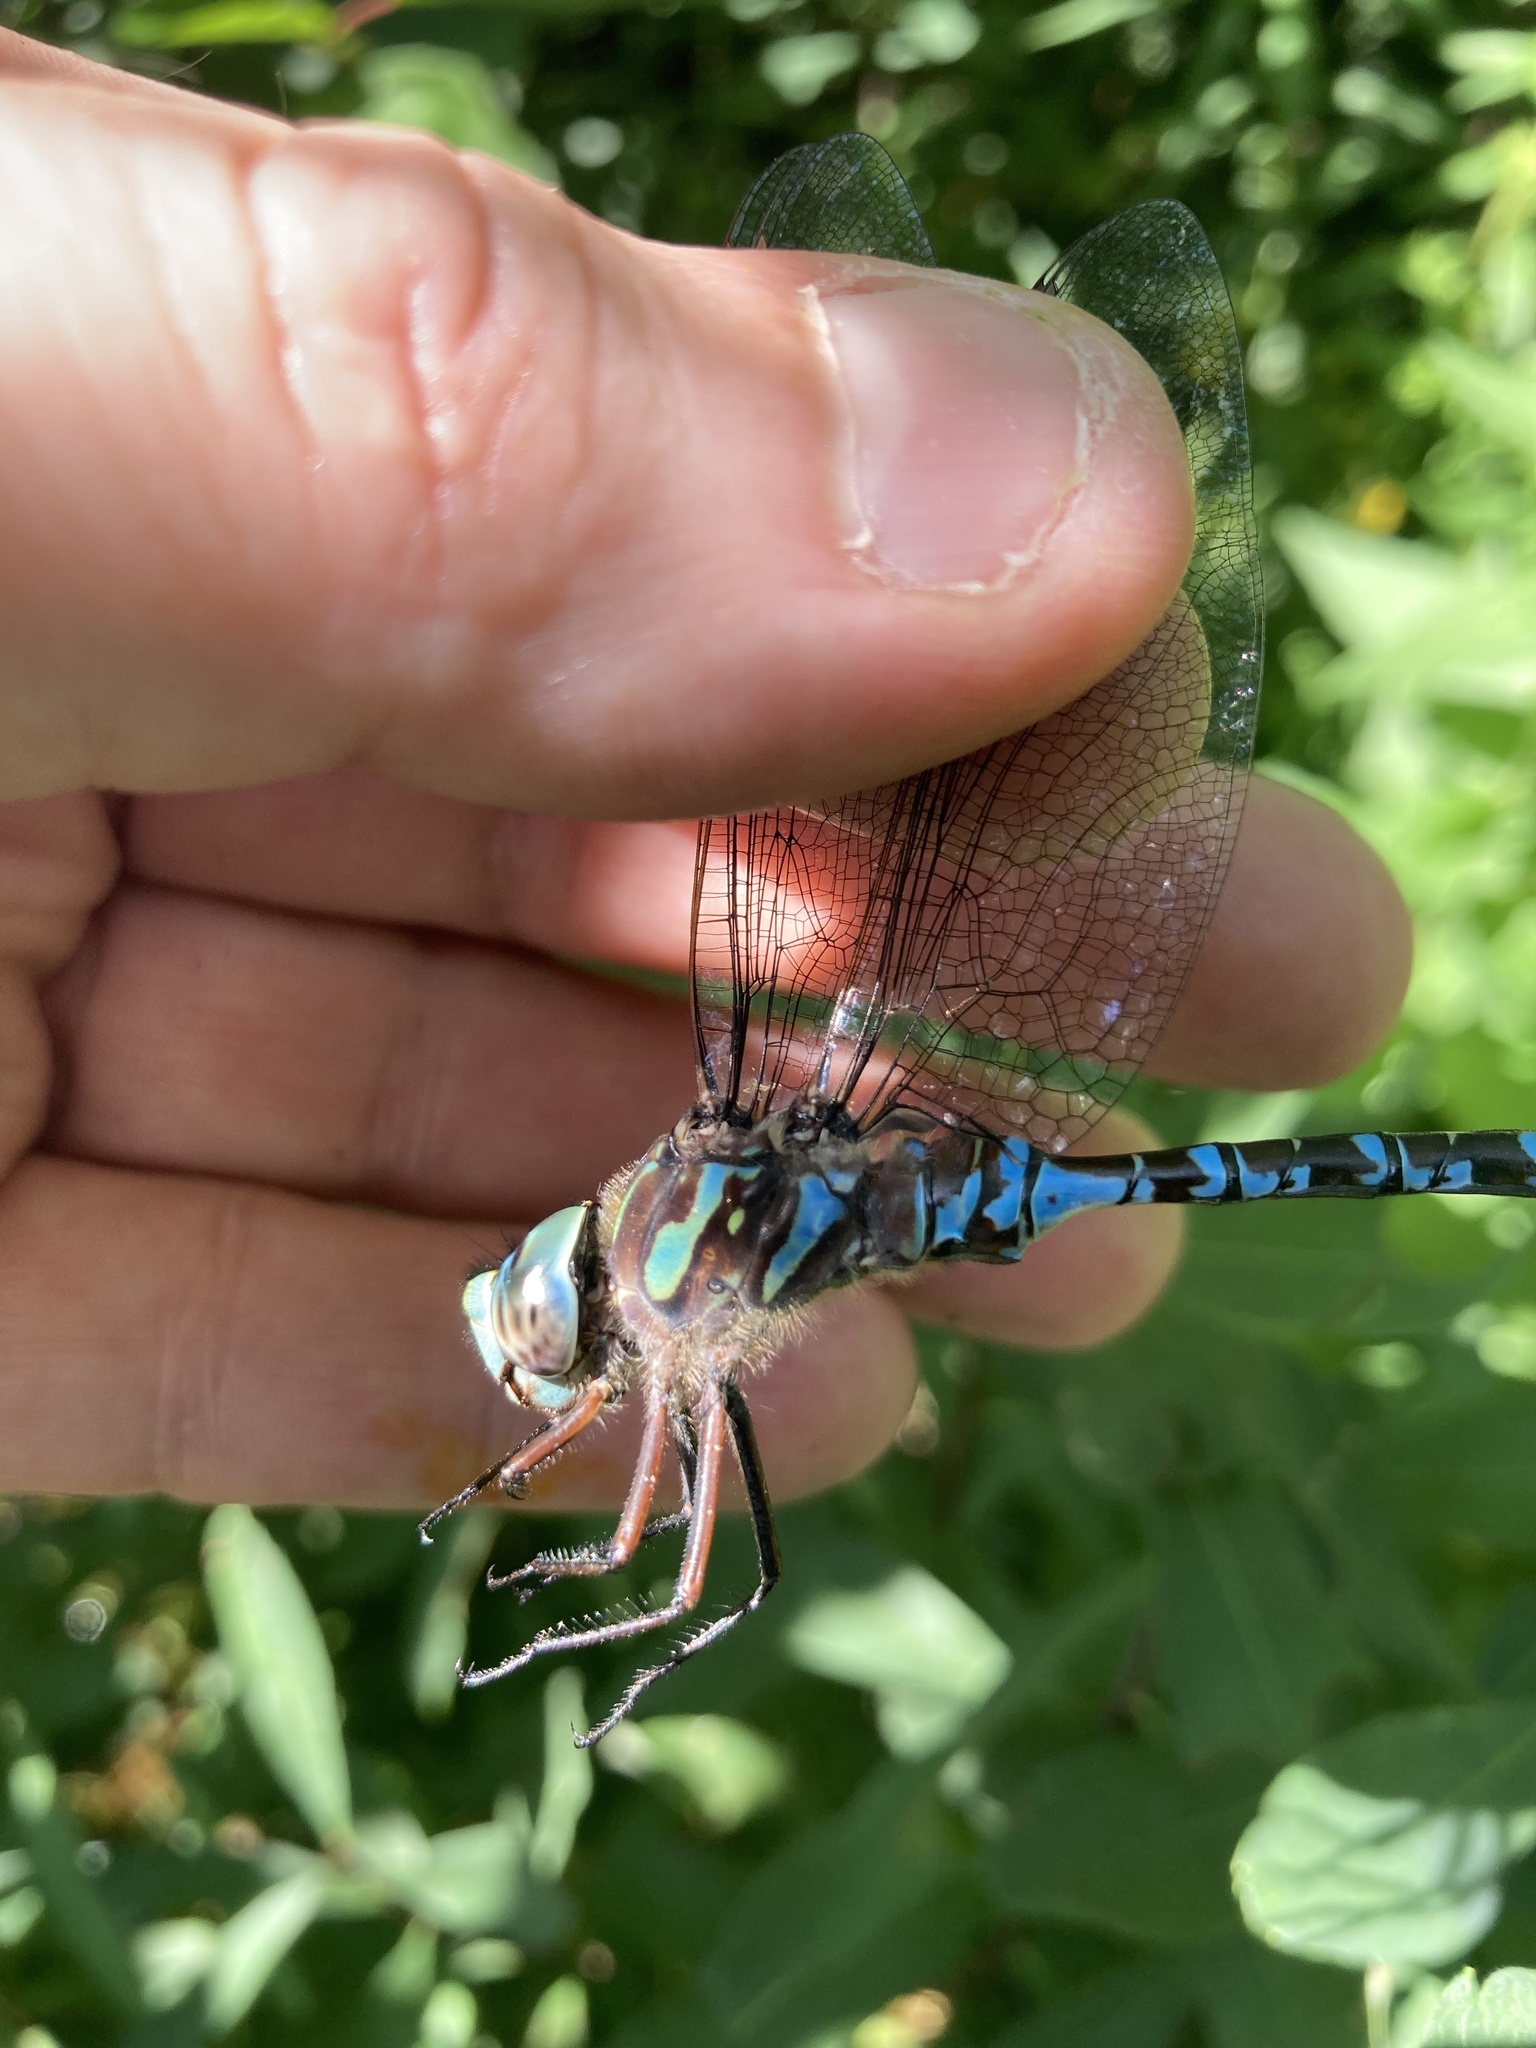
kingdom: Animalia
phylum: Arthropoda
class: Insecta
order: Odonata
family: Aeshnidae
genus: Aeshna
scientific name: Aeshna canadensis
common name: Canada darner
